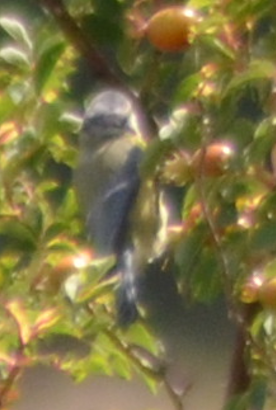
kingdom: Animalia
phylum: Chordata
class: Aves
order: Passeriformes
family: Paridae
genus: Cyanistes
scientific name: Cyanistes caeruleus
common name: Eurasian blue tit
